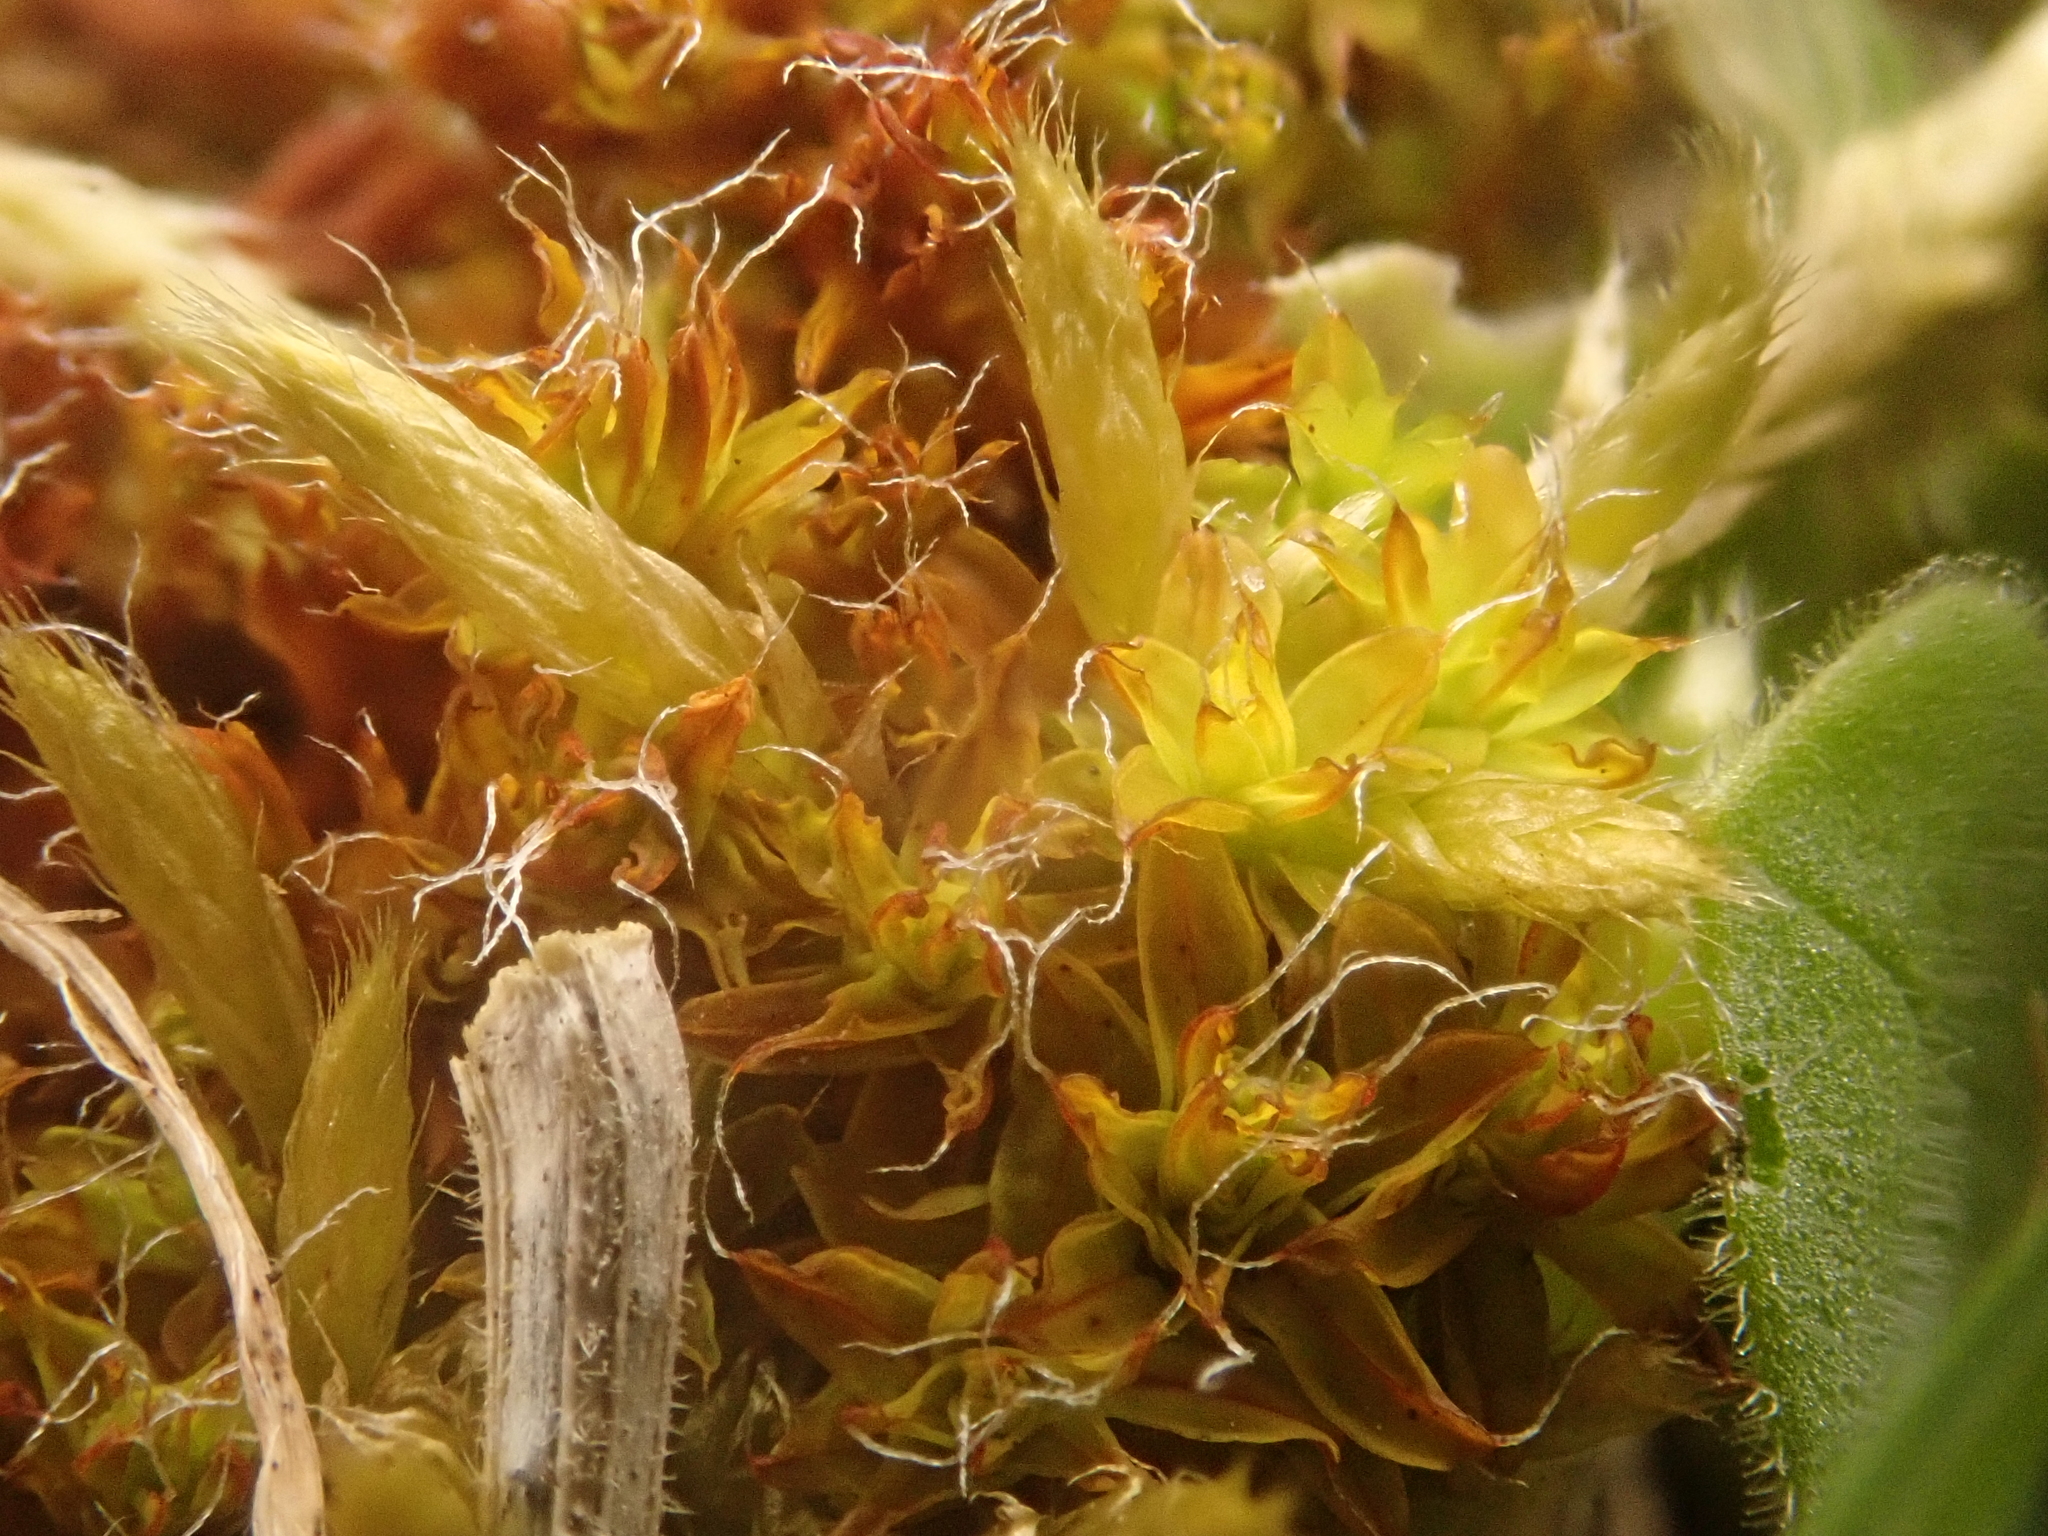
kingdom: Plantae
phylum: Bryophyta
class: Bryopsida
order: Pottiales
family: Pottiaceae
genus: Syntrichia
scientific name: Syntrichia ruralis
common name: Sidewalk screw moss
